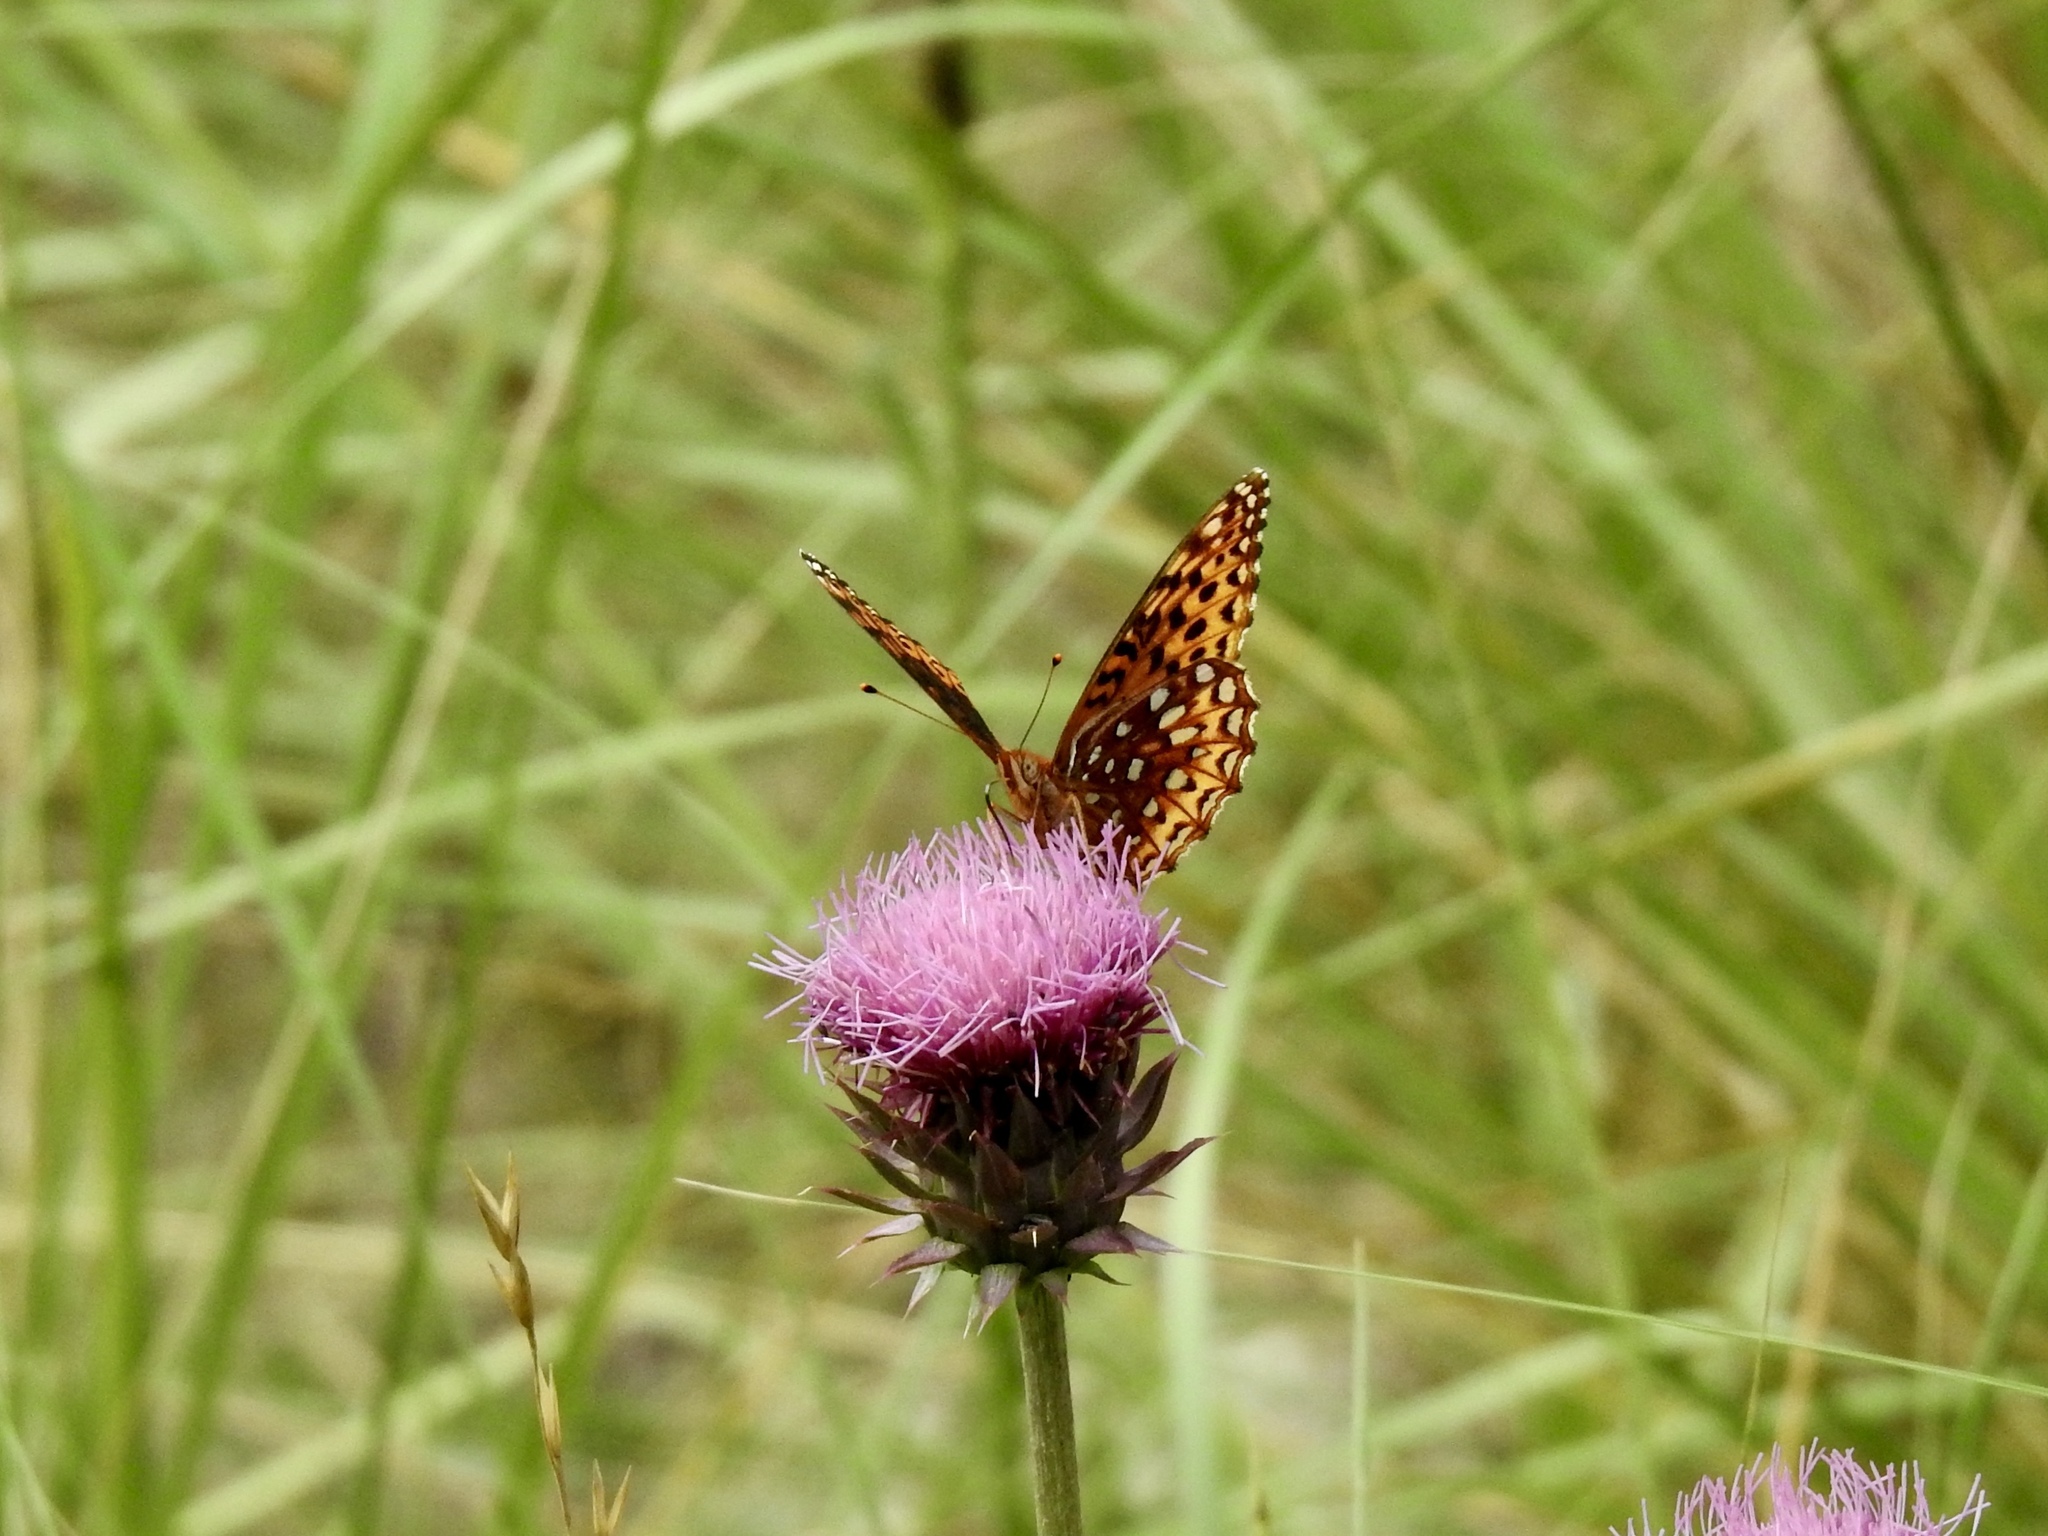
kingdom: Animalia
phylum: Arthropoda
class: Insecta
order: Lepidoptera
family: Nymphalidae
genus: Speyeria
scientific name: Speyeria atlantis
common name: Atlantis fritillary
